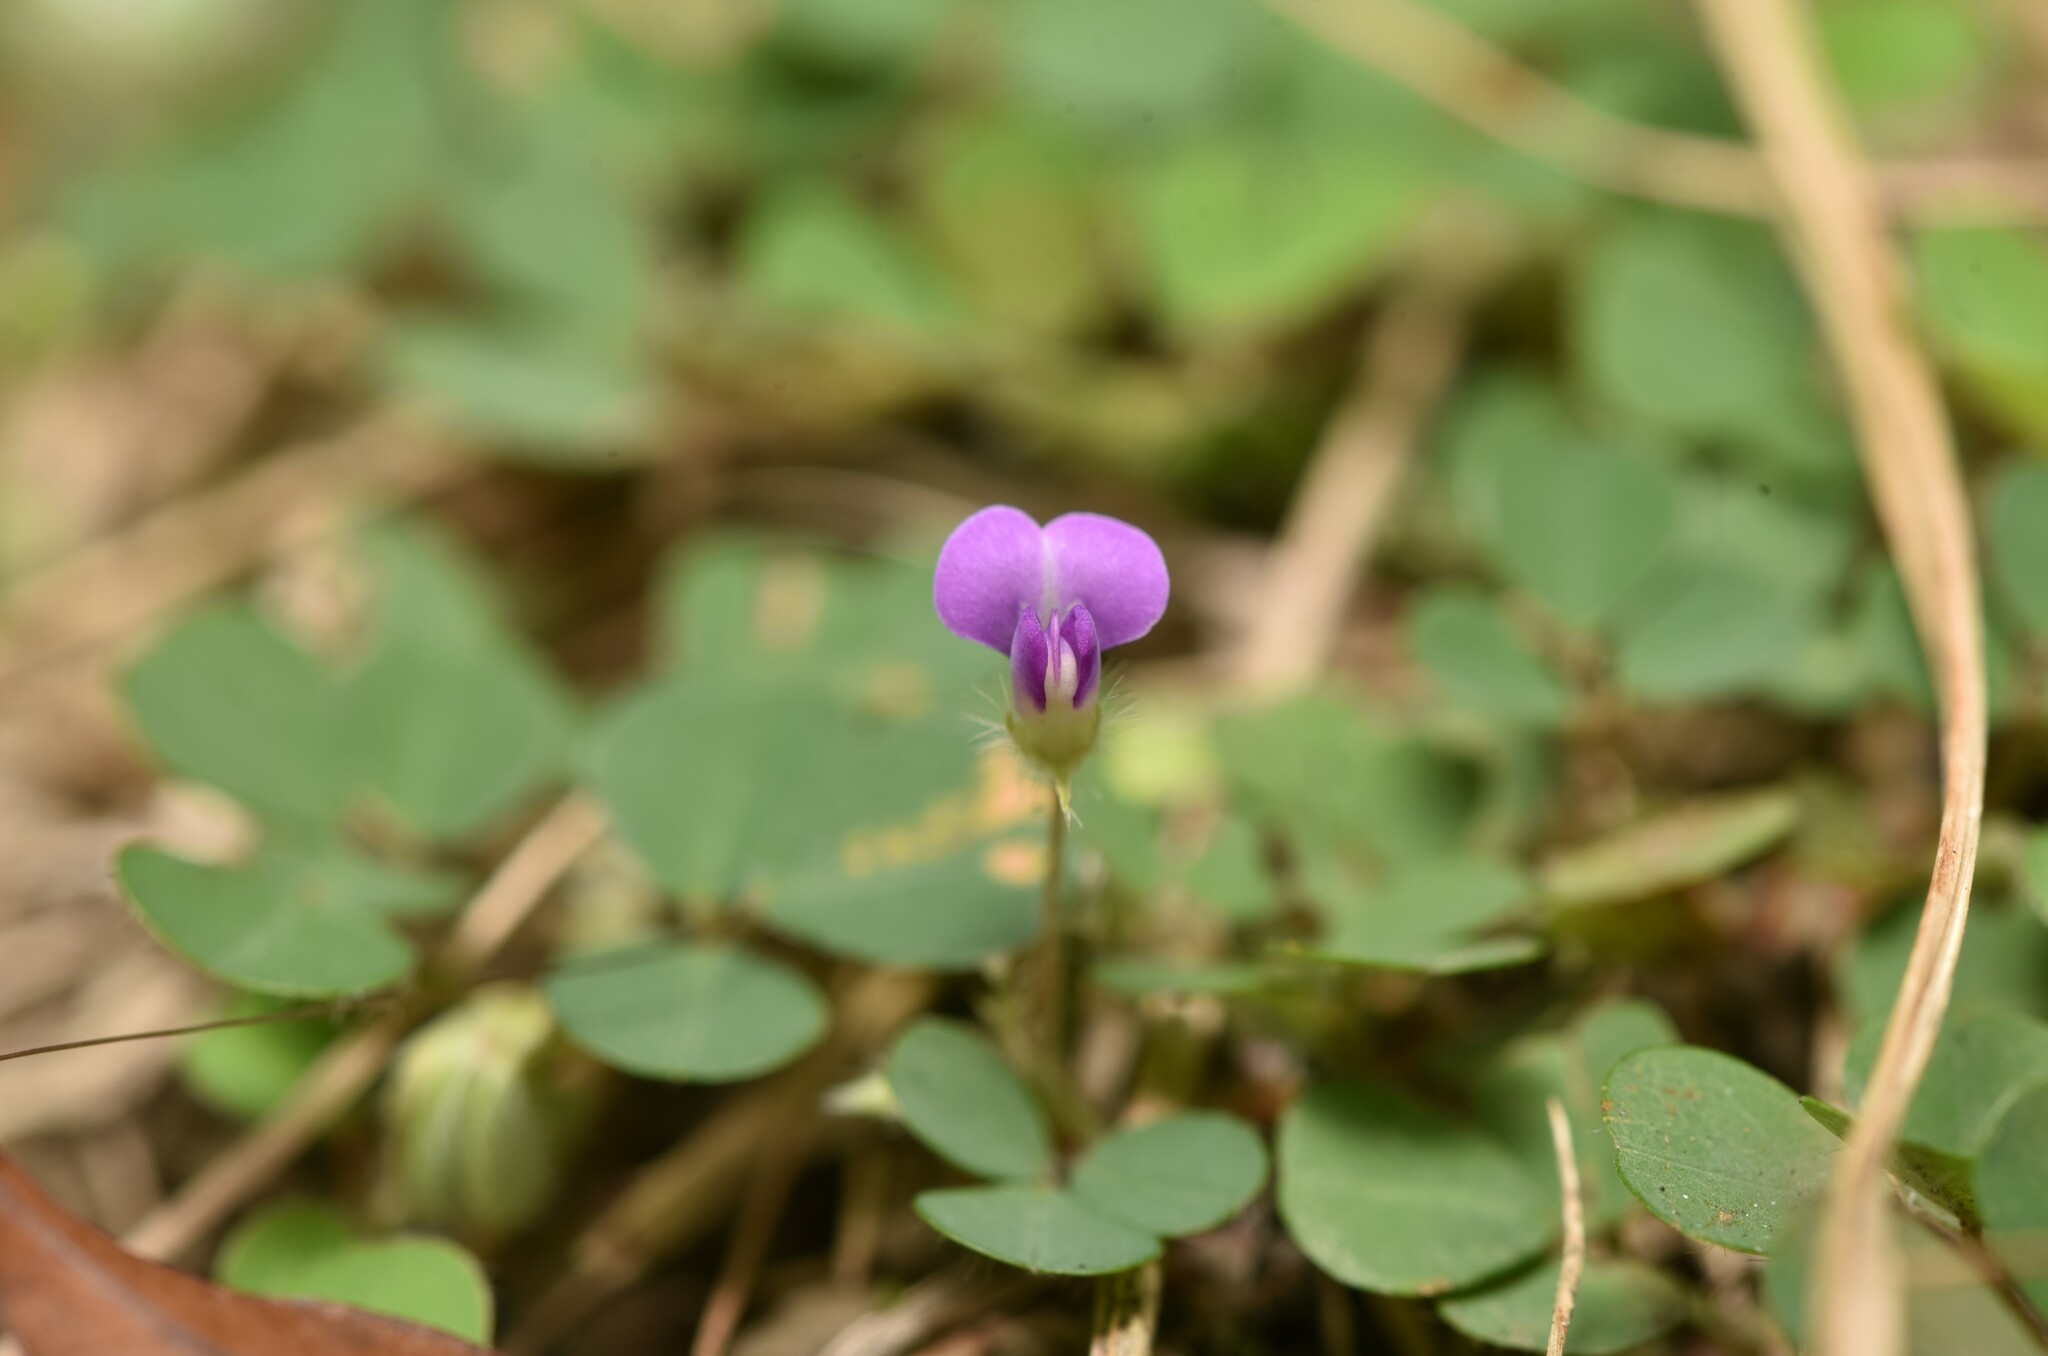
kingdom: Plantae
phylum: Tracheophyta
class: Magnoliopsida
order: Fabales
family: Fabaceae
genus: Grona
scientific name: Grona triflora
